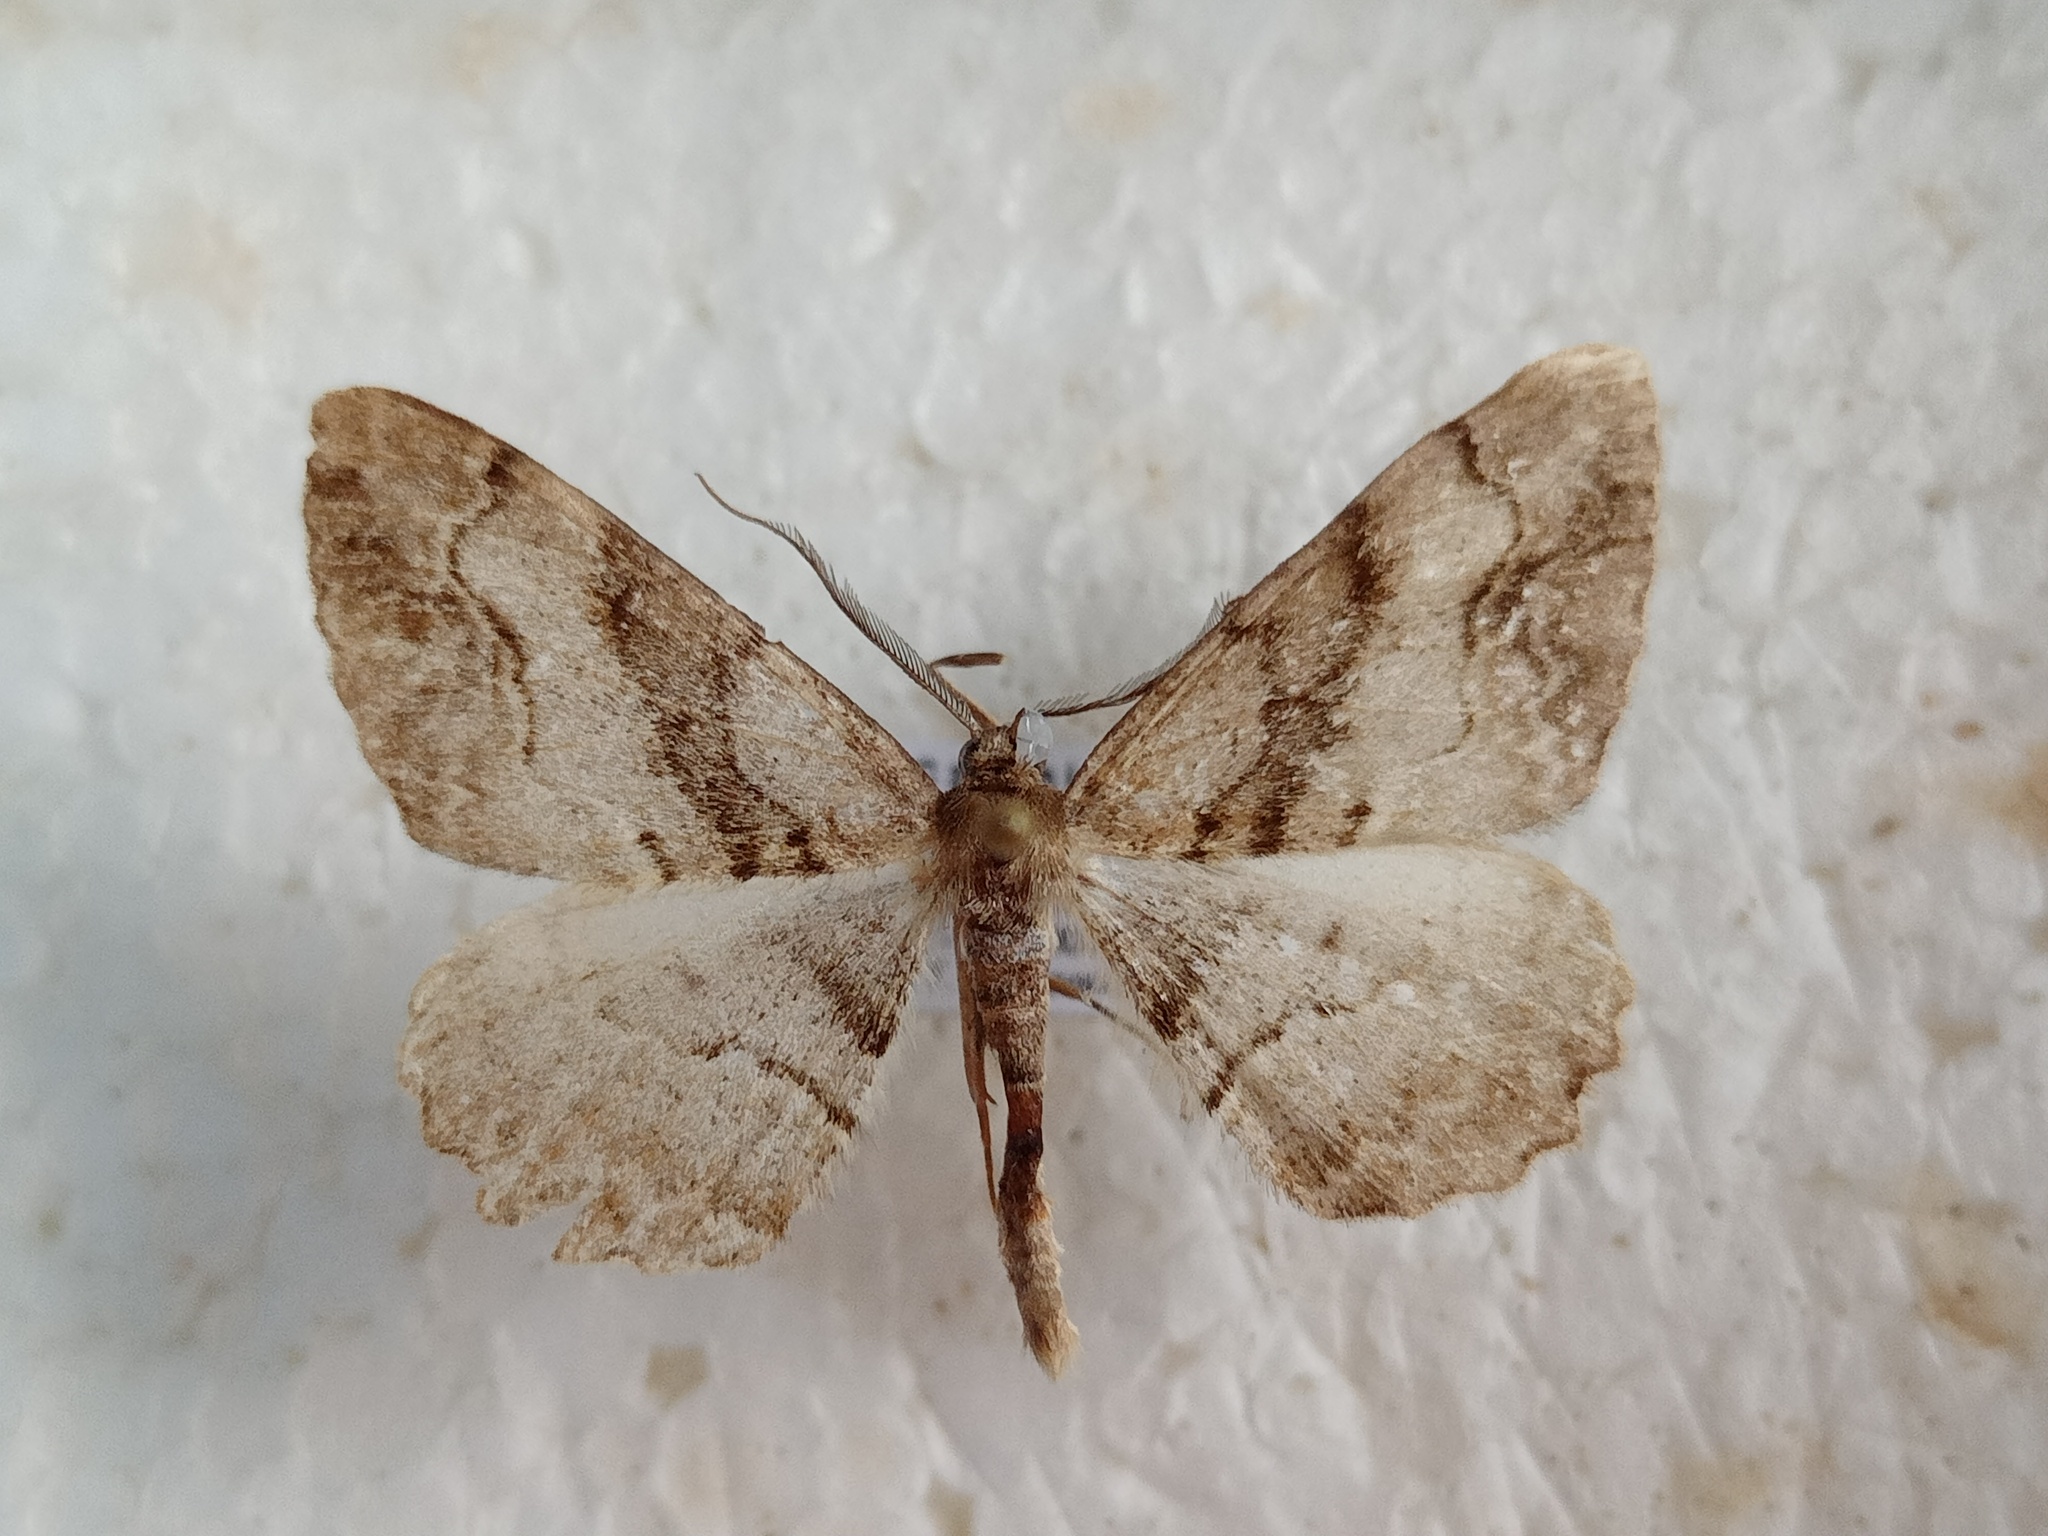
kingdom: Animalia
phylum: Arthropoda
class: Insecta
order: Lepidoptera
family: Geometridae
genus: Alcis
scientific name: Alcis deversata
